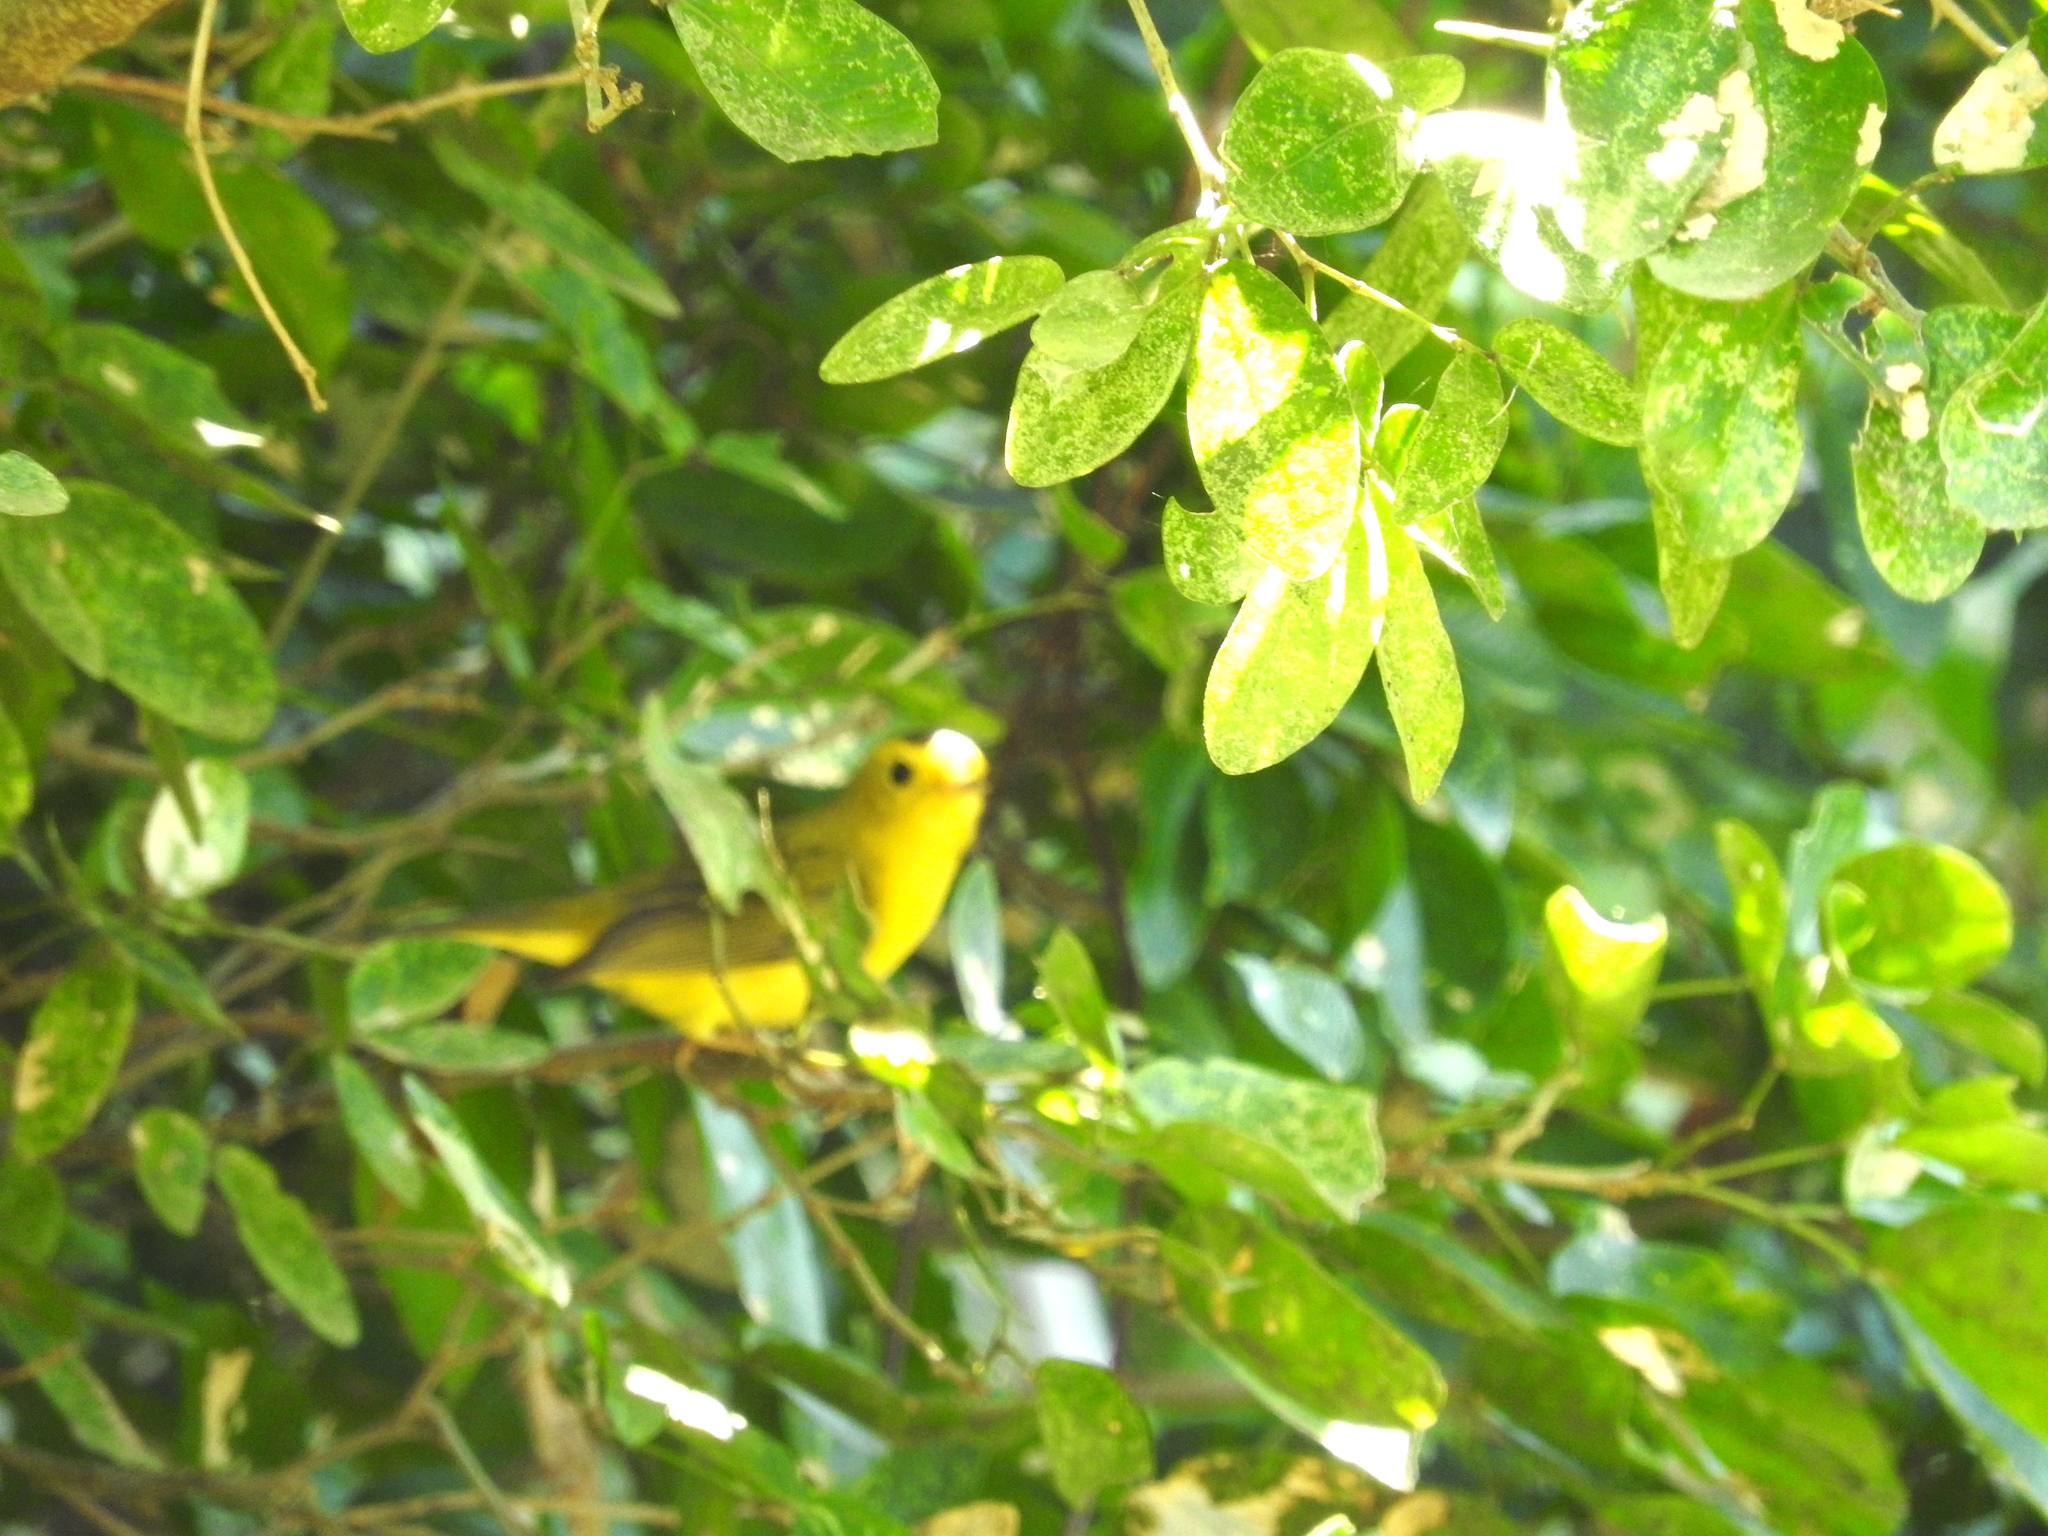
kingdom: Animalia
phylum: Chordata
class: Aves
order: Passeriformes
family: Parulidae
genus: Cardellina
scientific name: Cardellina pusilla
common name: Wilson's warbler
